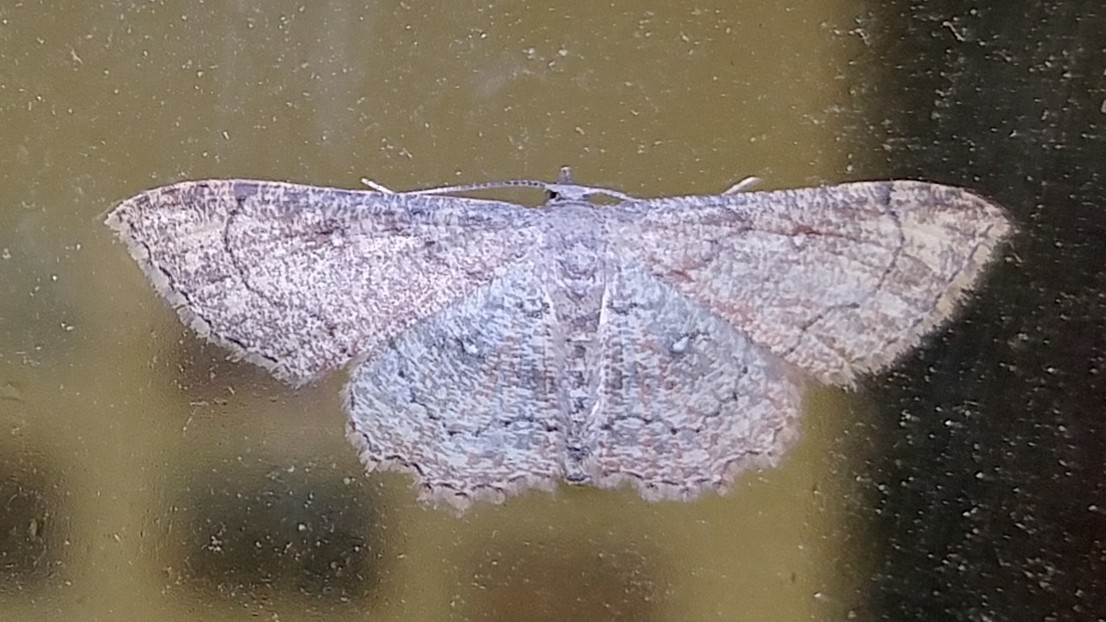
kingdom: Animalia
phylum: Arthropoda
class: Insecta
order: Lepidoptera
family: Geometridae
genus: Cyclophora
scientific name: Cyclophora nanaria
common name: Cankerworm
